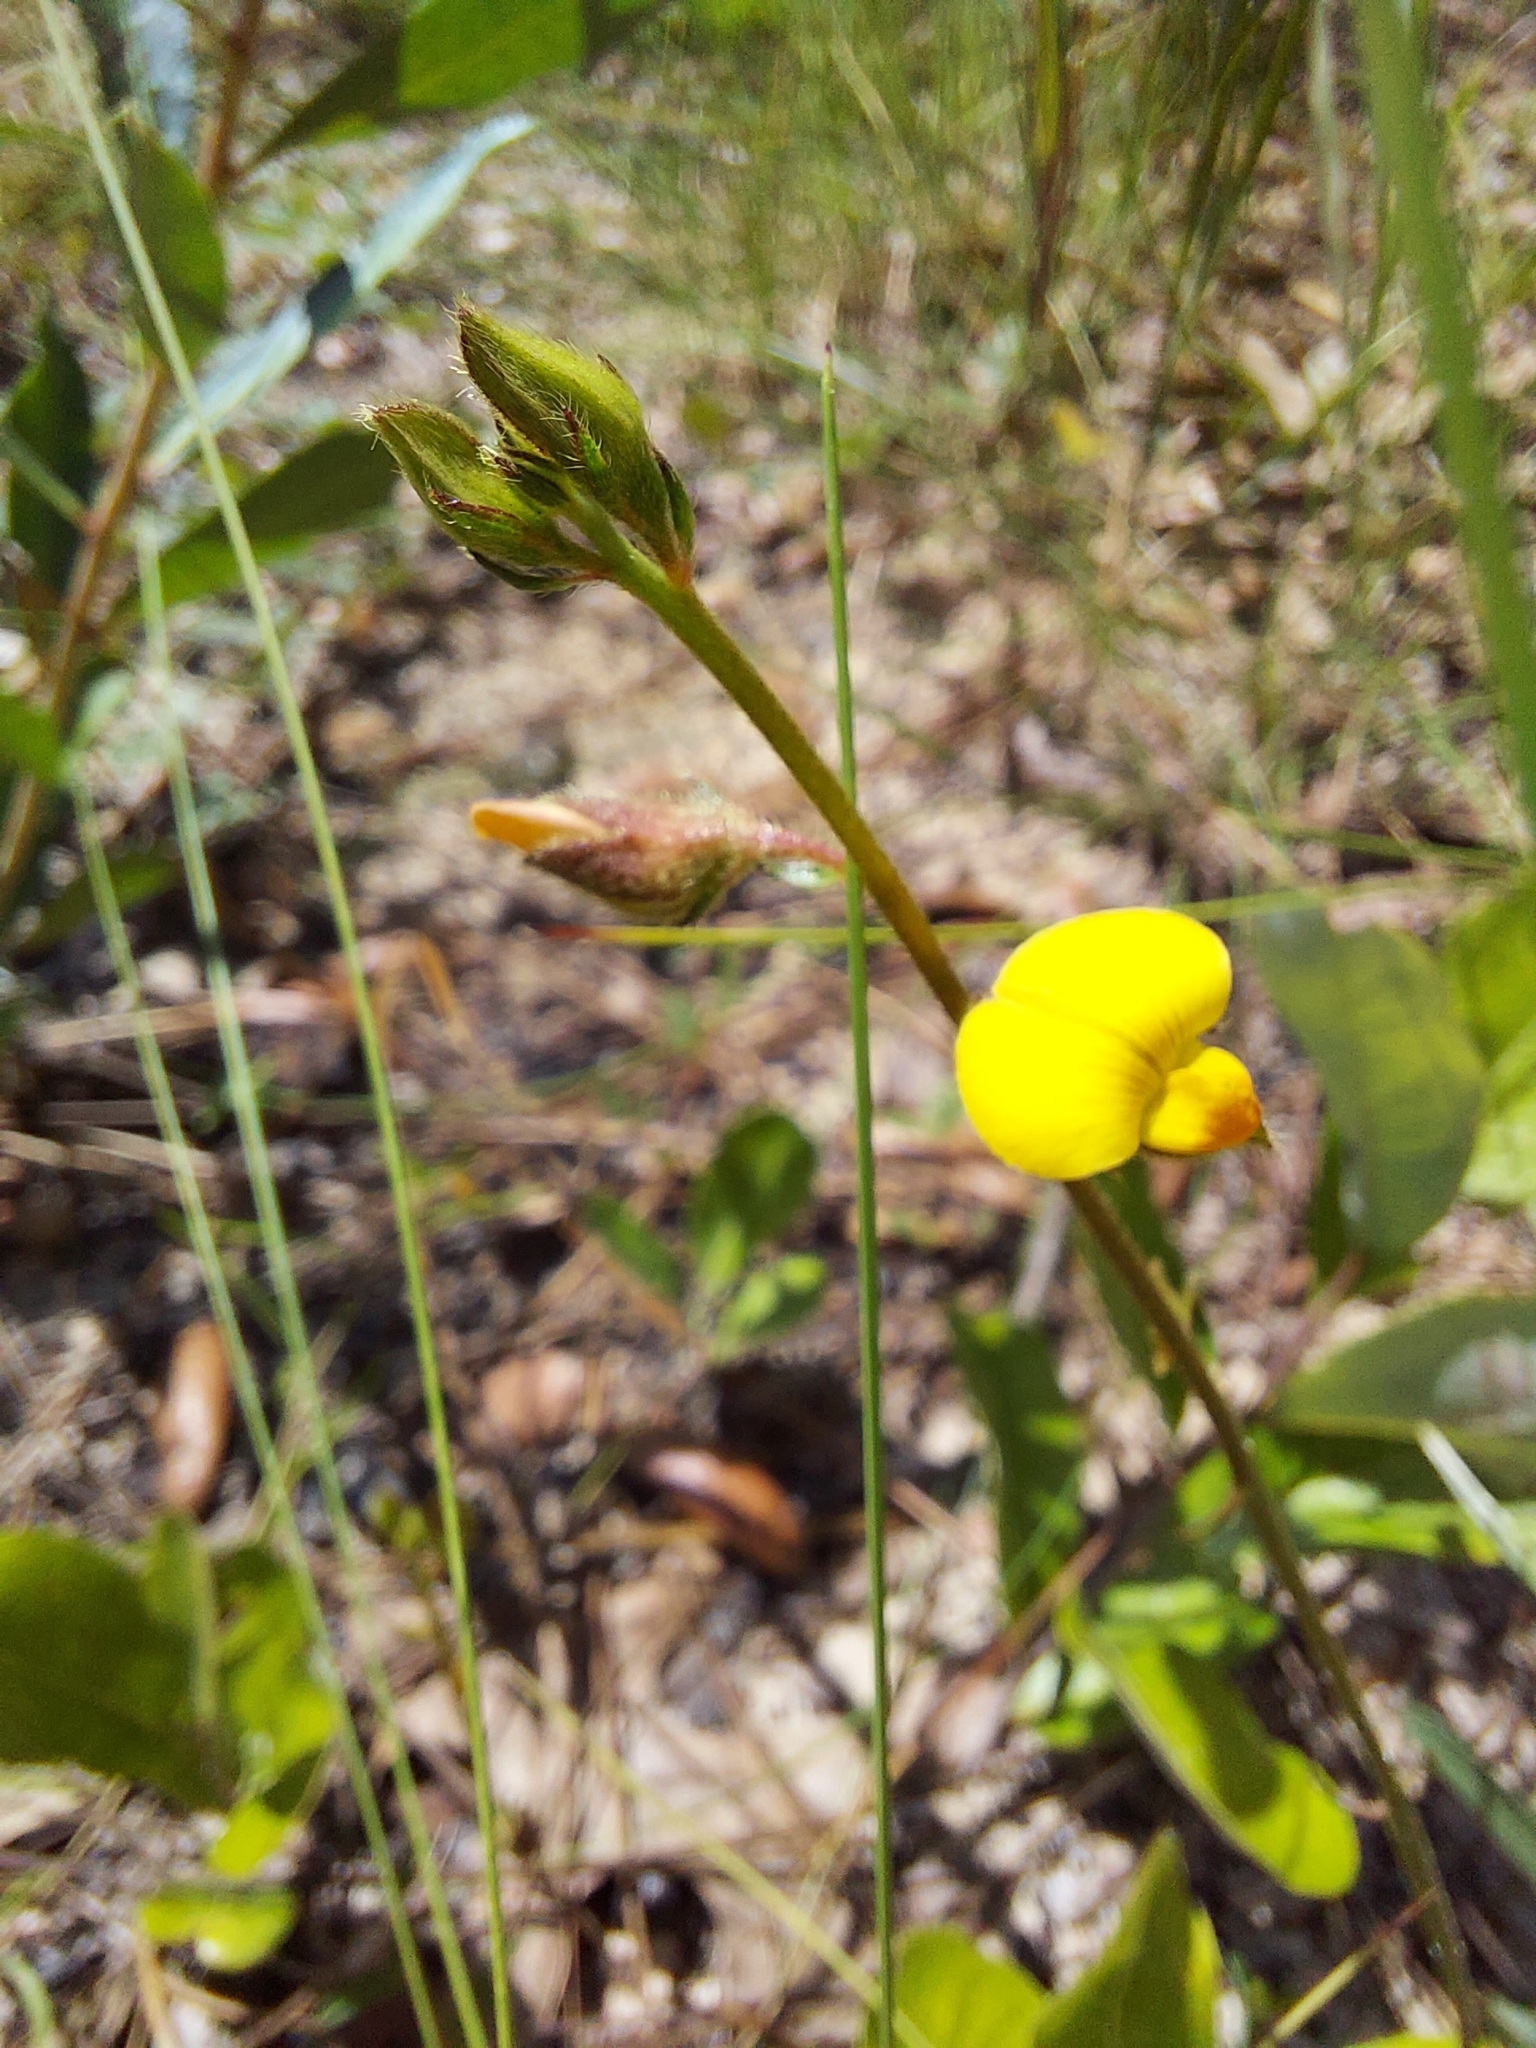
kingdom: Plantae
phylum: Tracheophyta
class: Magnoliopsida
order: Fabales
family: Fabaceae
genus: Crotalaria
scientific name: Crotalaria rotundifolia
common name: Prostrate rattlebox
